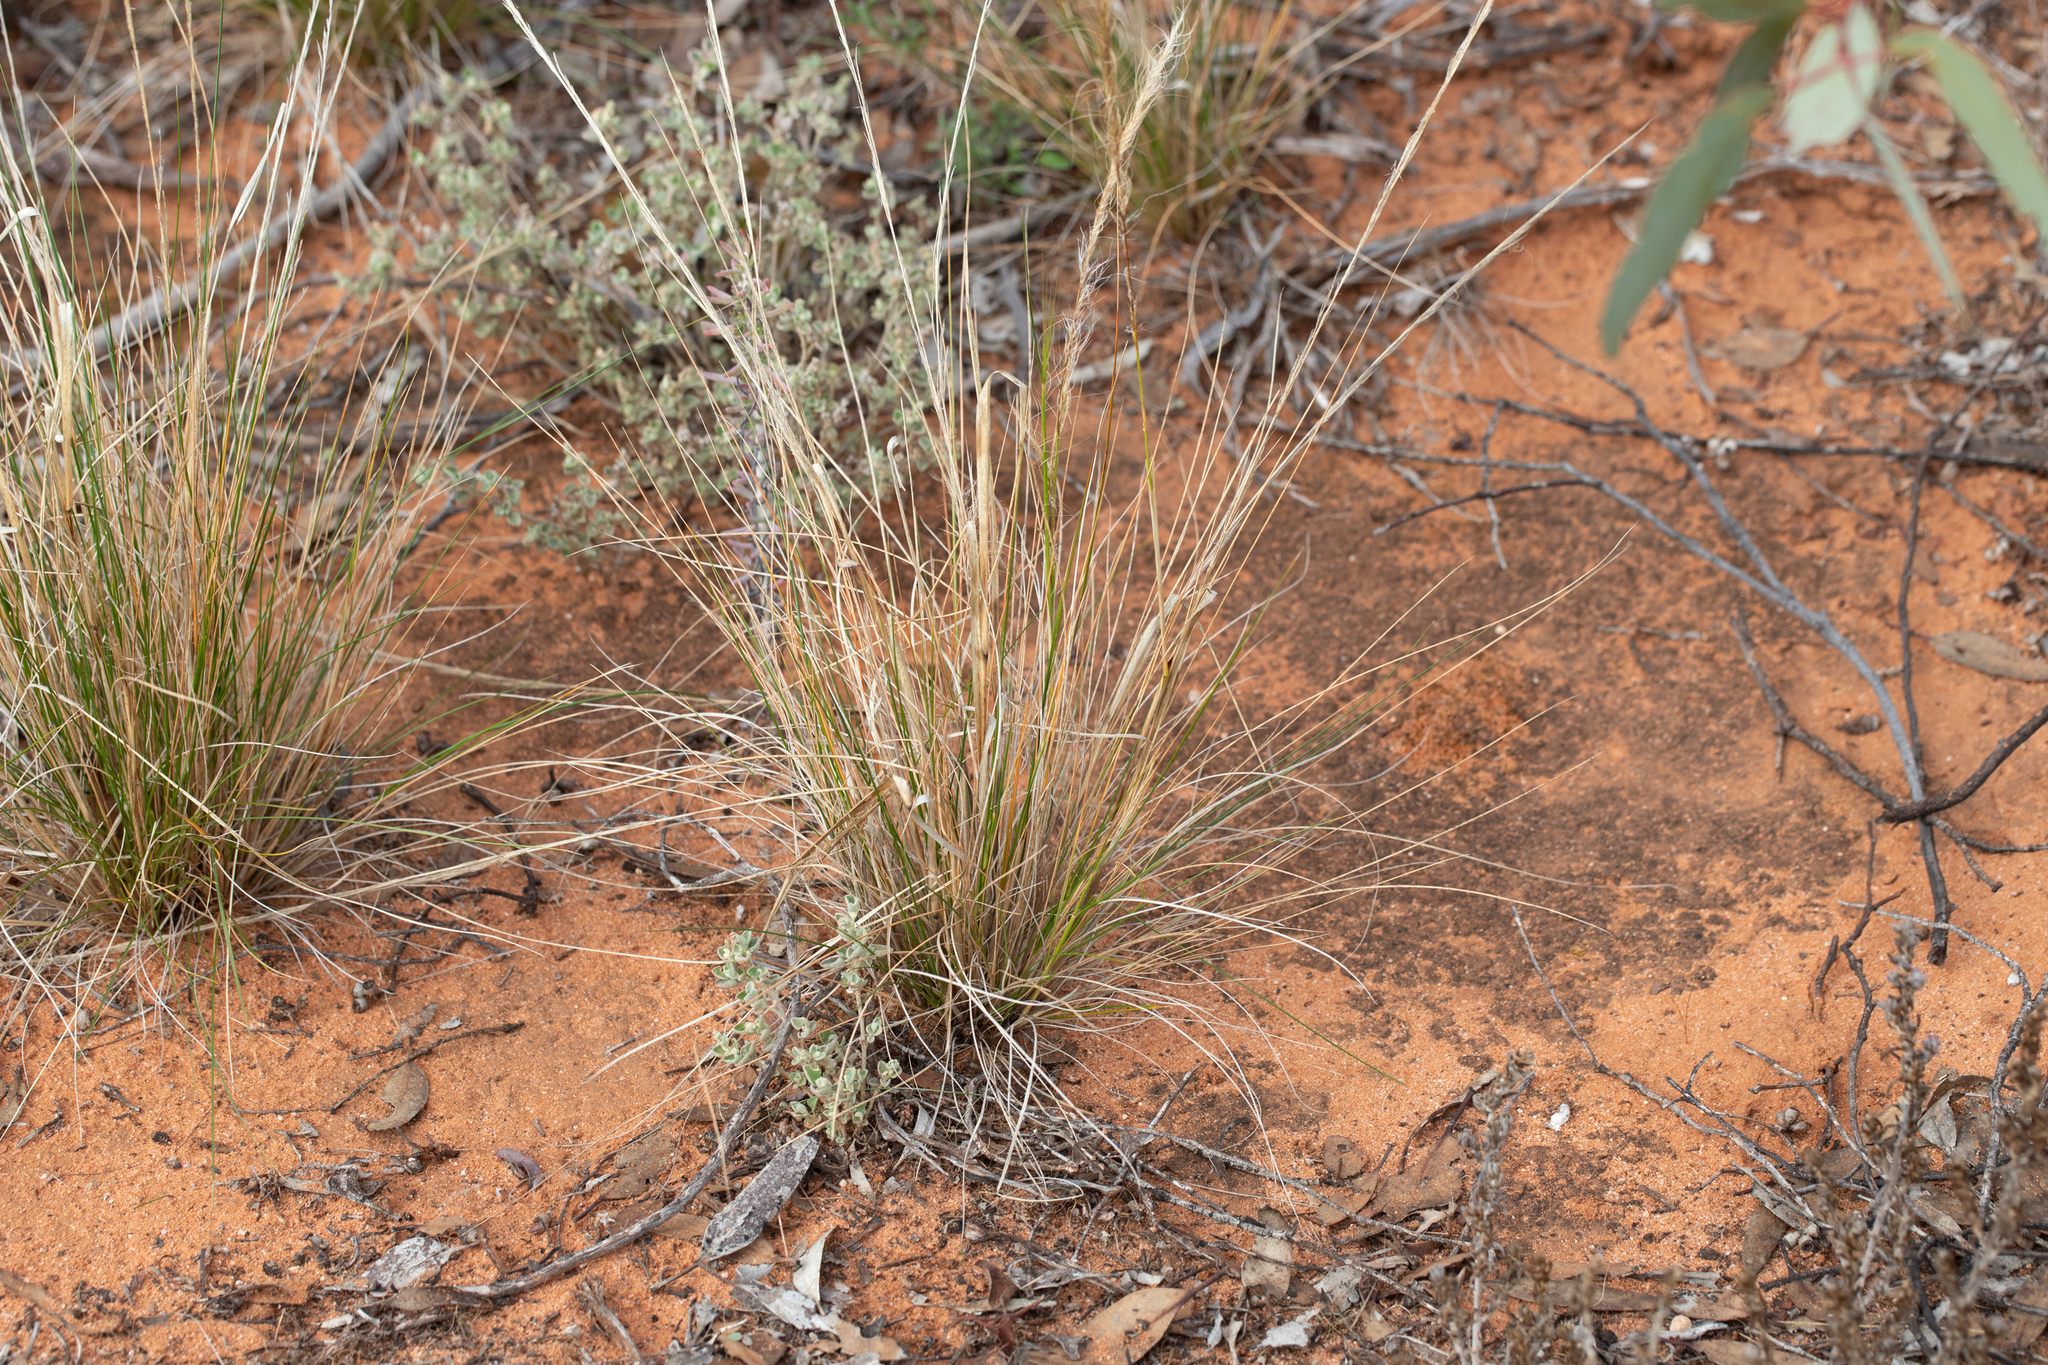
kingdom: Plantae
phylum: Tracheophyta
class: Liliopsida
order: Poales
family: Poaceae
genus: Austrostipa
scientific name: Austrostipa nitida
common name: Balcarra grass
